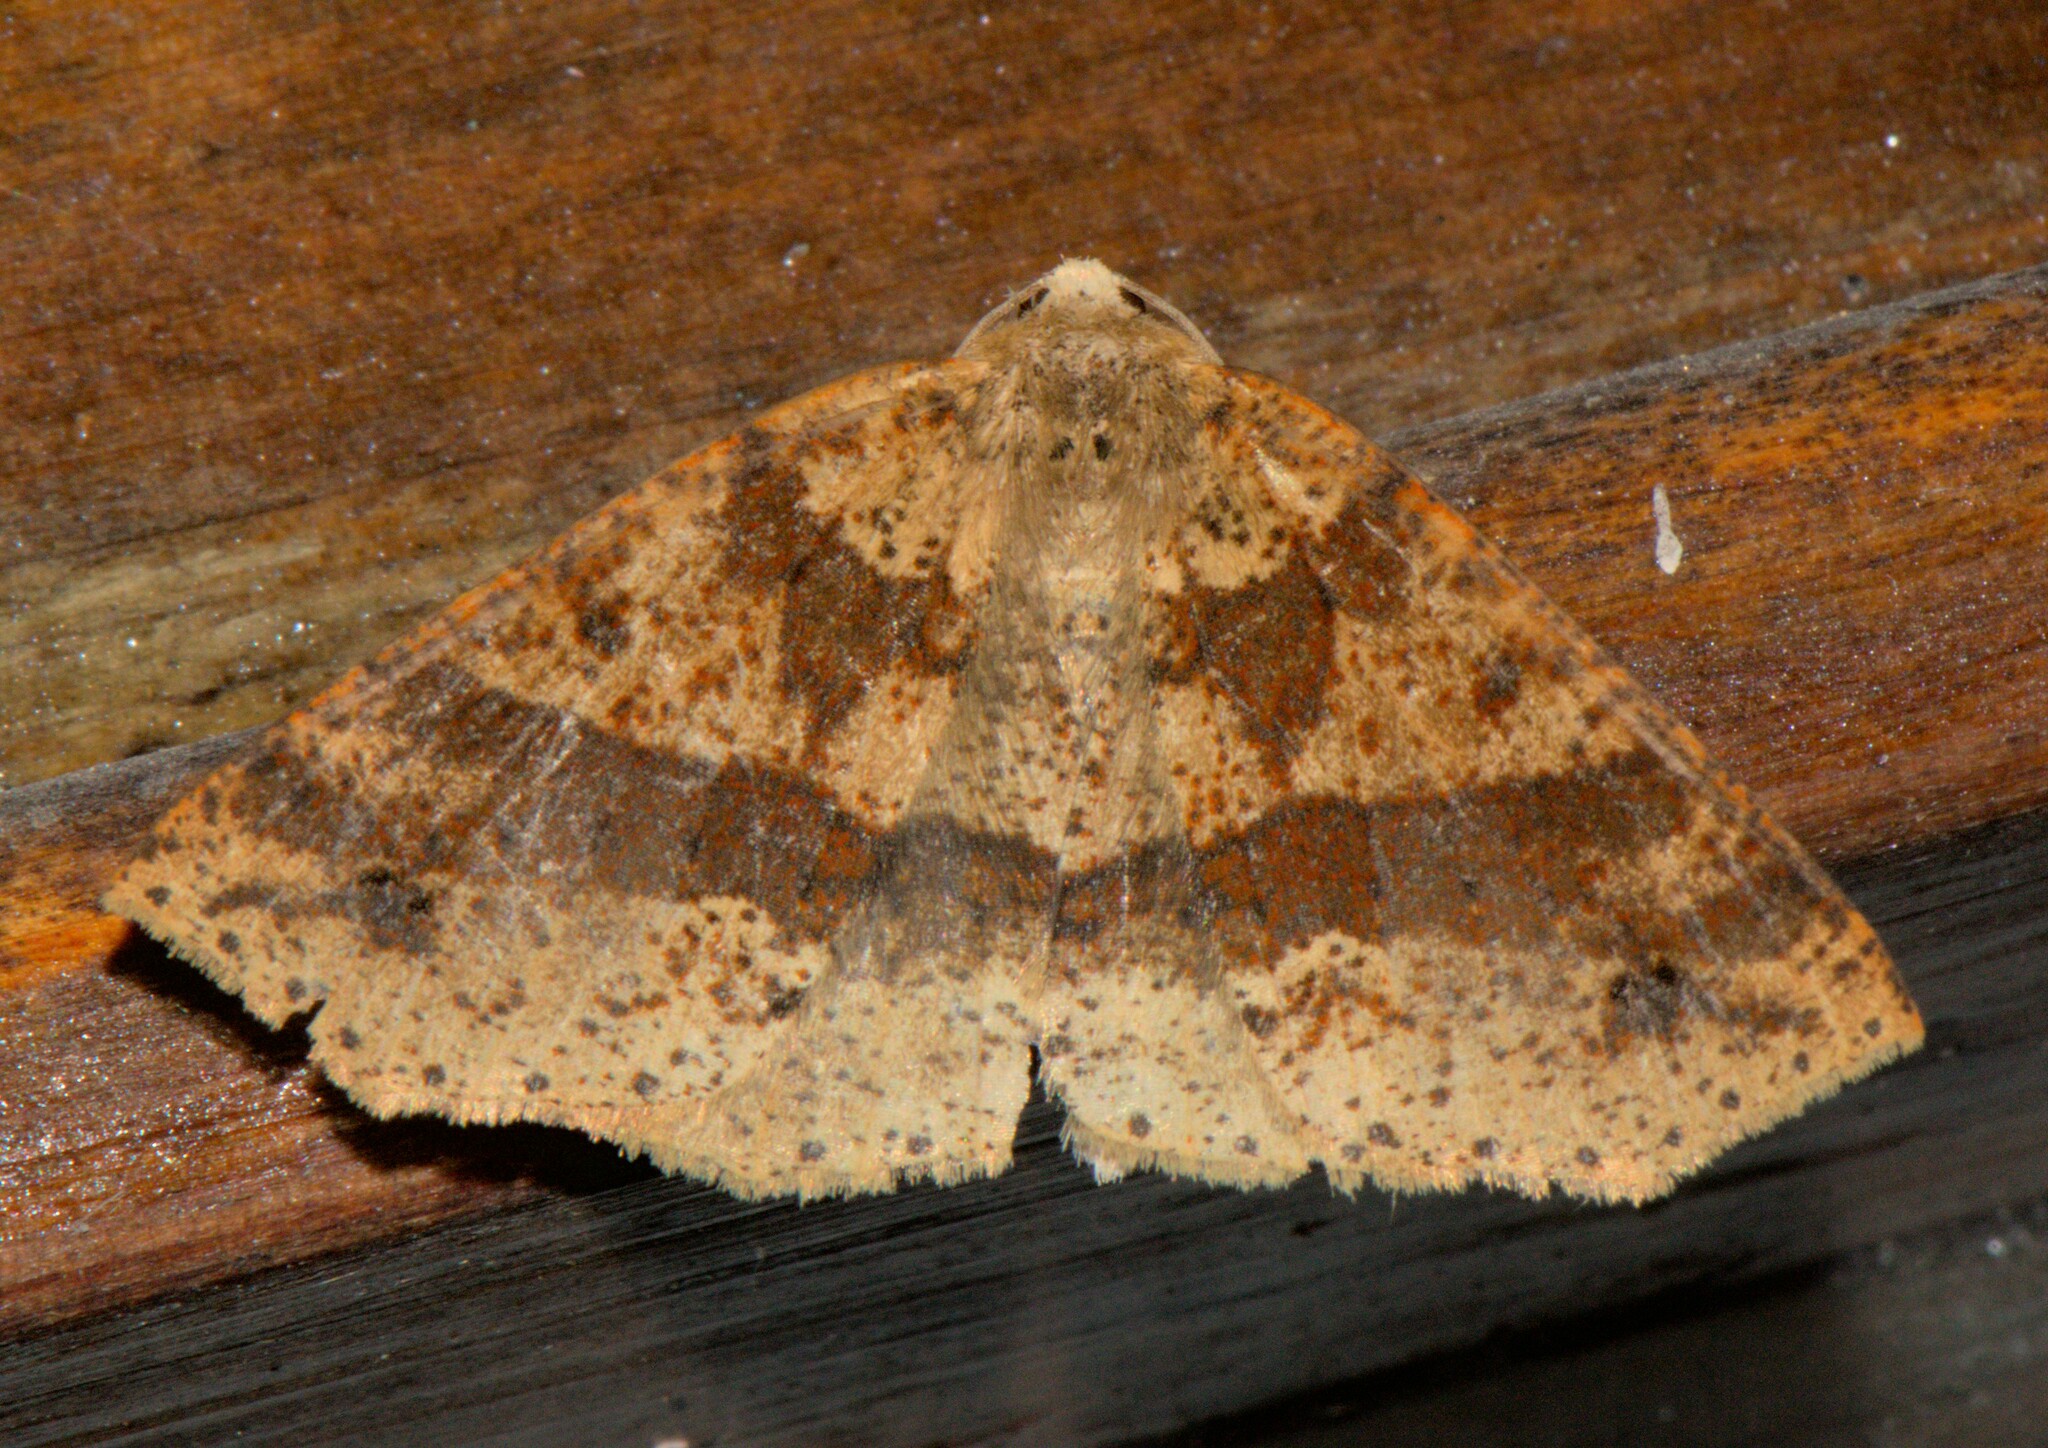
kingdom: Animalia
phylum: Arthropoda
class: Insecta
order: Lepidoptera
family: Geometridae
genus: Psyra
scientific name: Psyra spurcataria
